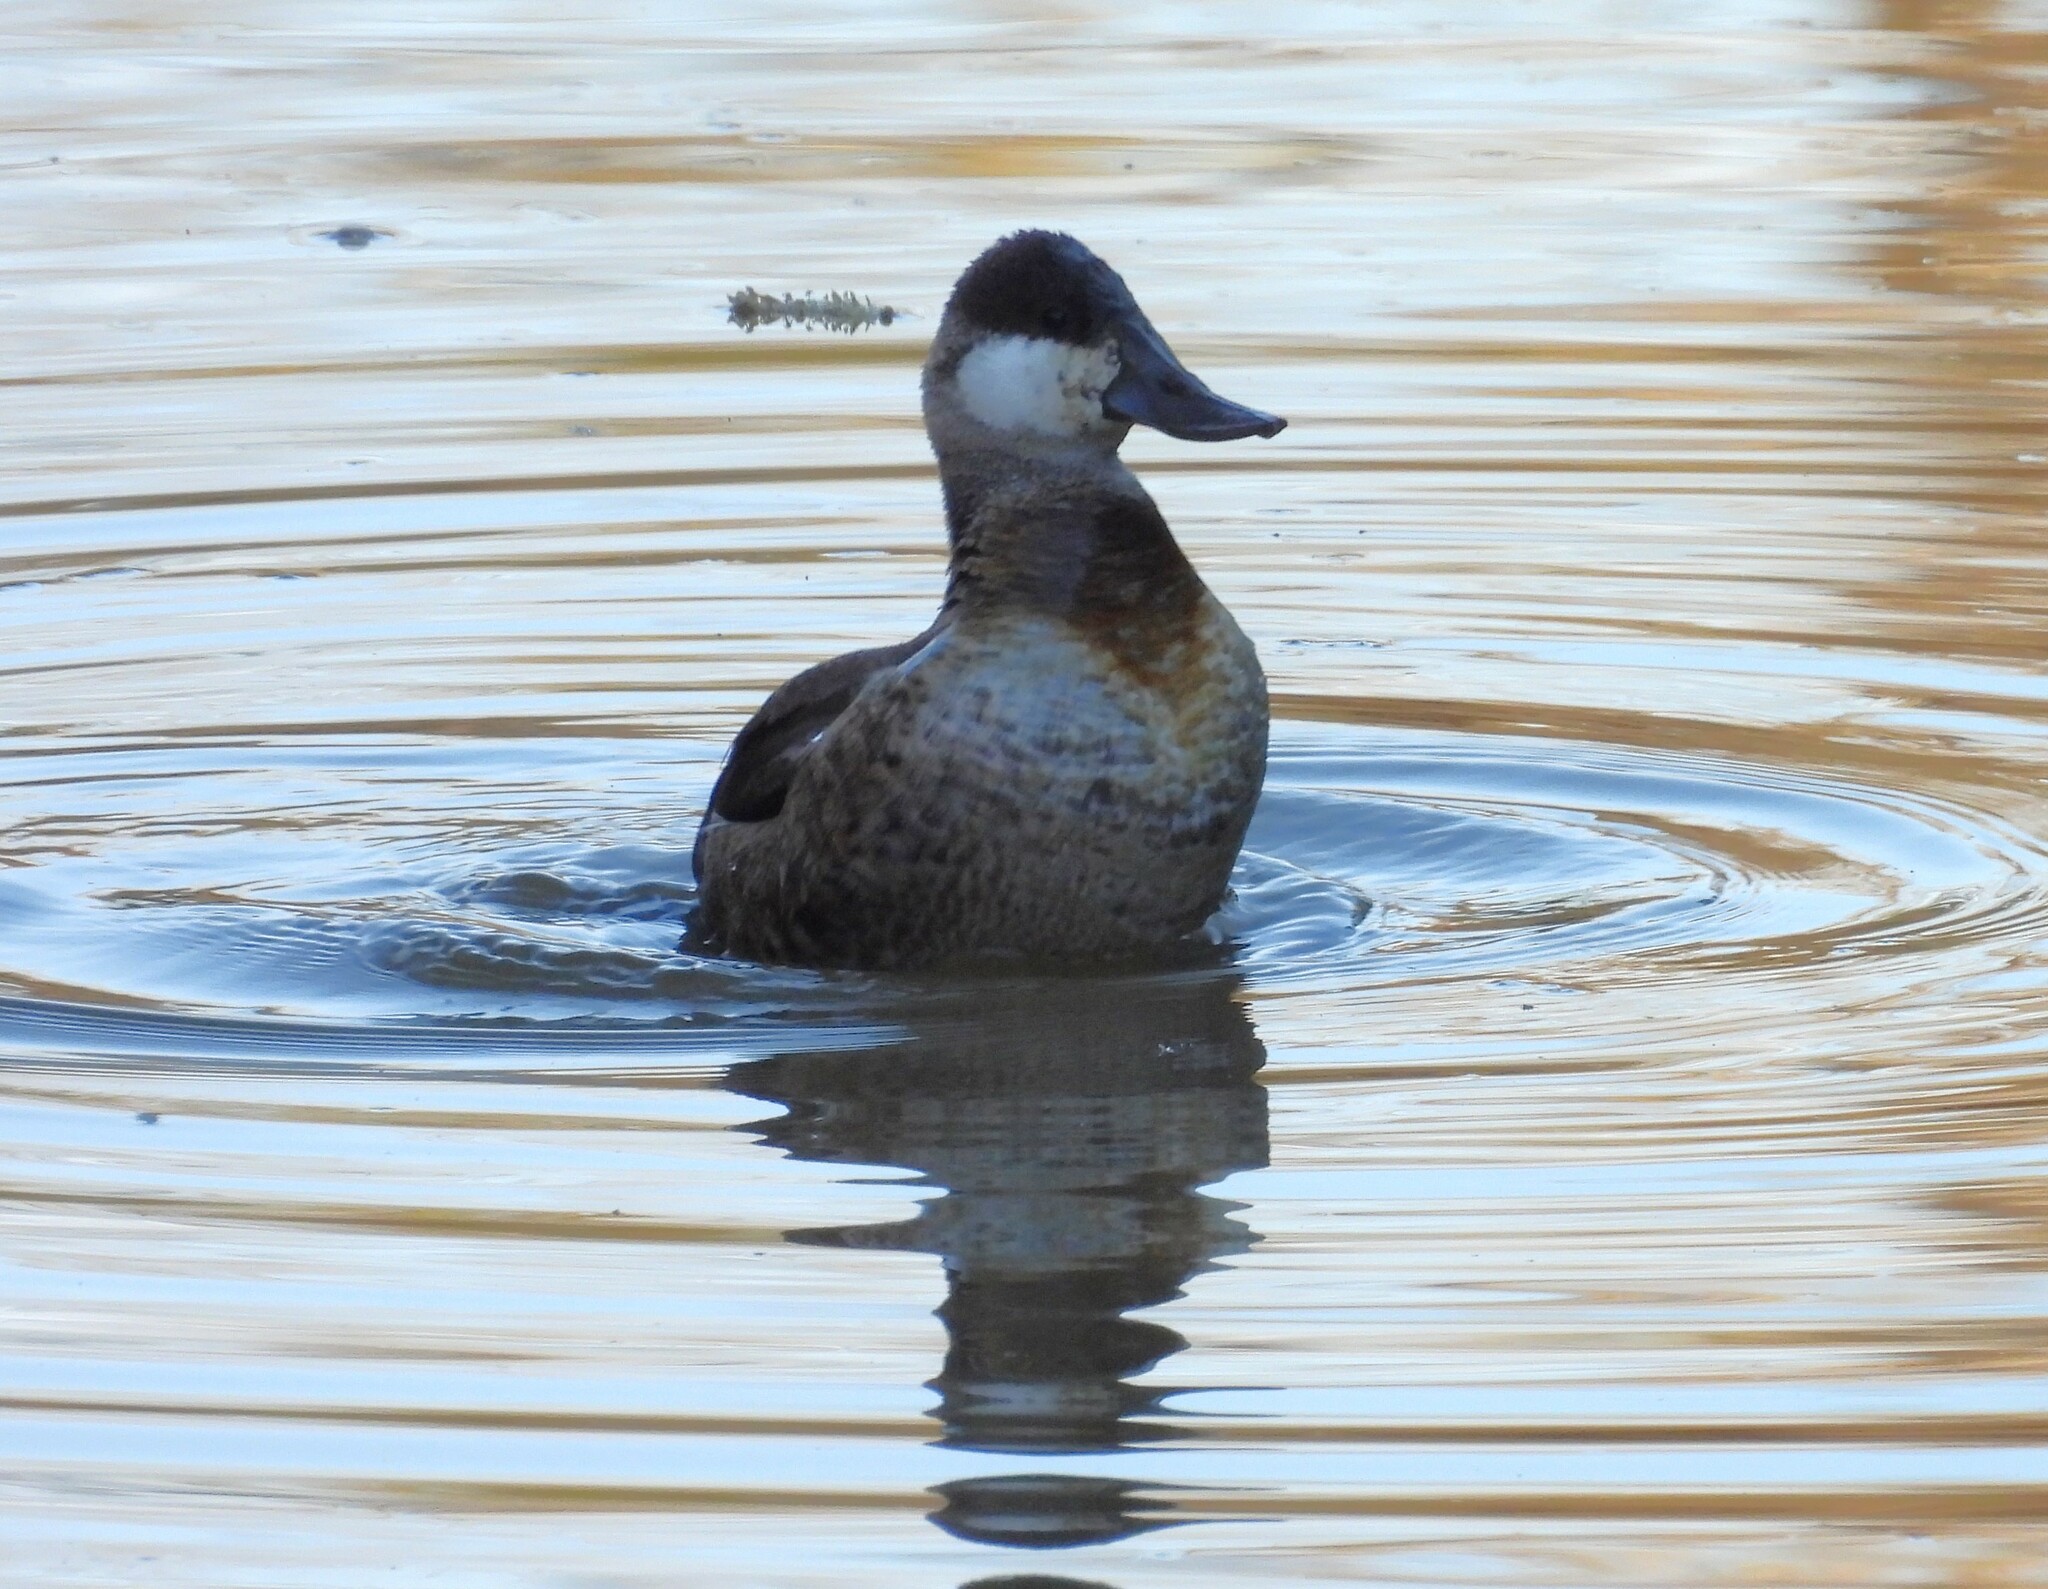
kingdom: Animalia
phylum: Chordata
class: Aves
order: Anseriformes
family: Anatidae
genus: Oxyura
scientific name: Oxyura jamaicensis
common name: Ruddy duck
